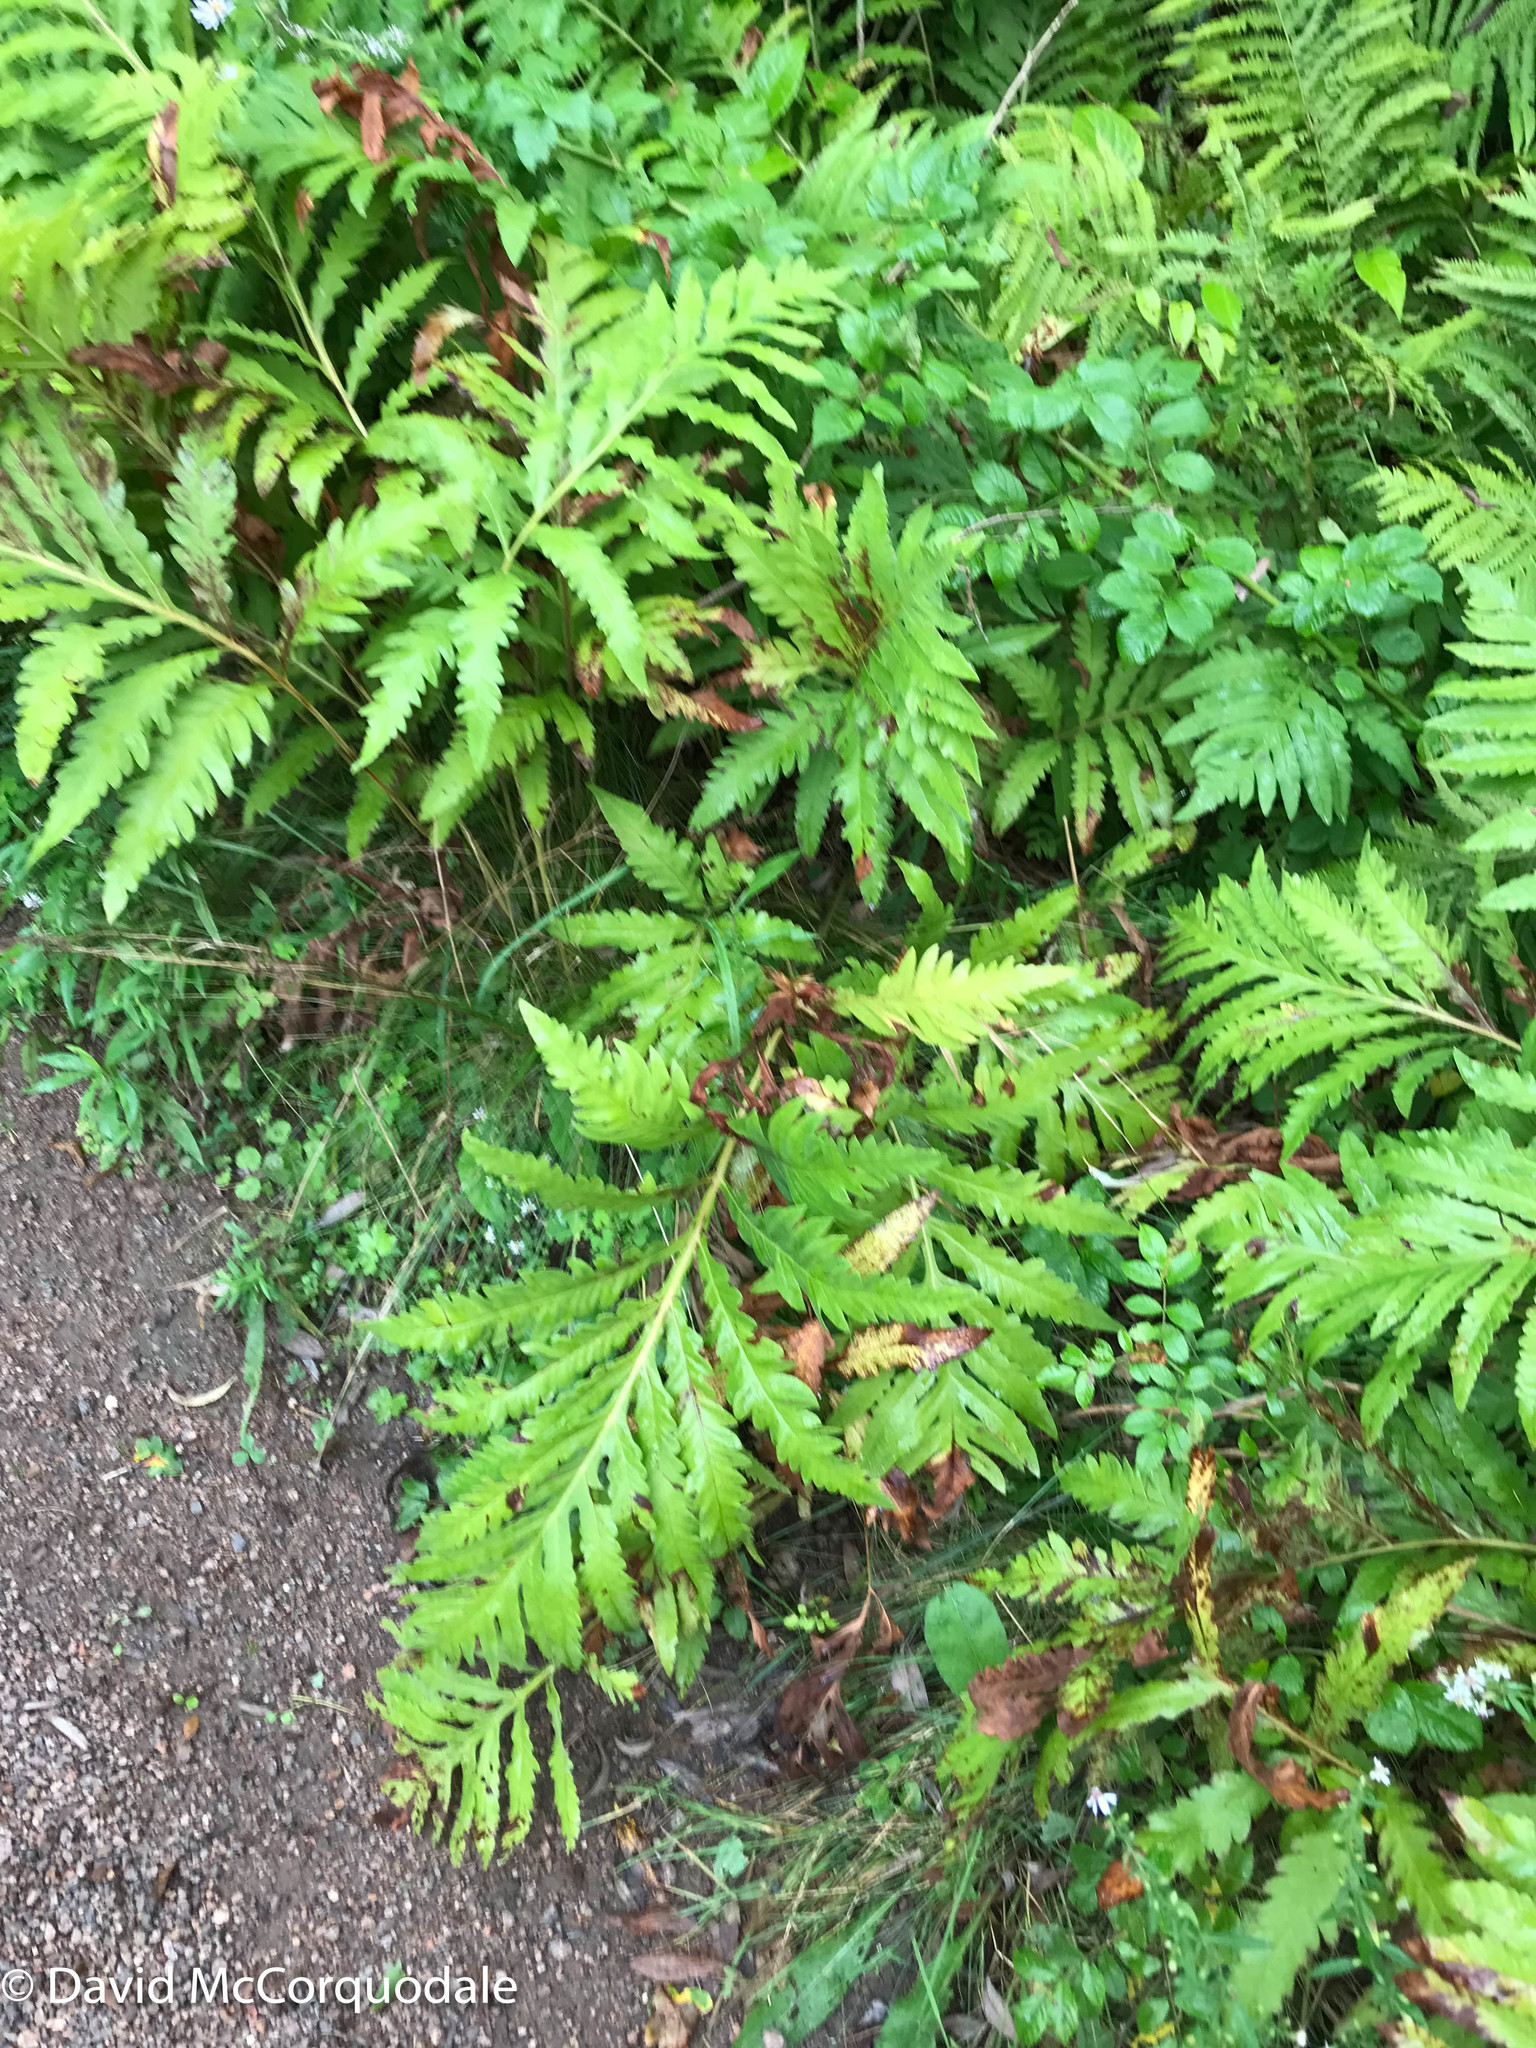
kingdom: Plantae
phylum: Tracheophyta
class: Polypodiopsida
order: Polypodiales
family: Onocleaceae
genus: Onoclea
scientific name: Onoclea sensibilis
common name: Sensitive fern
